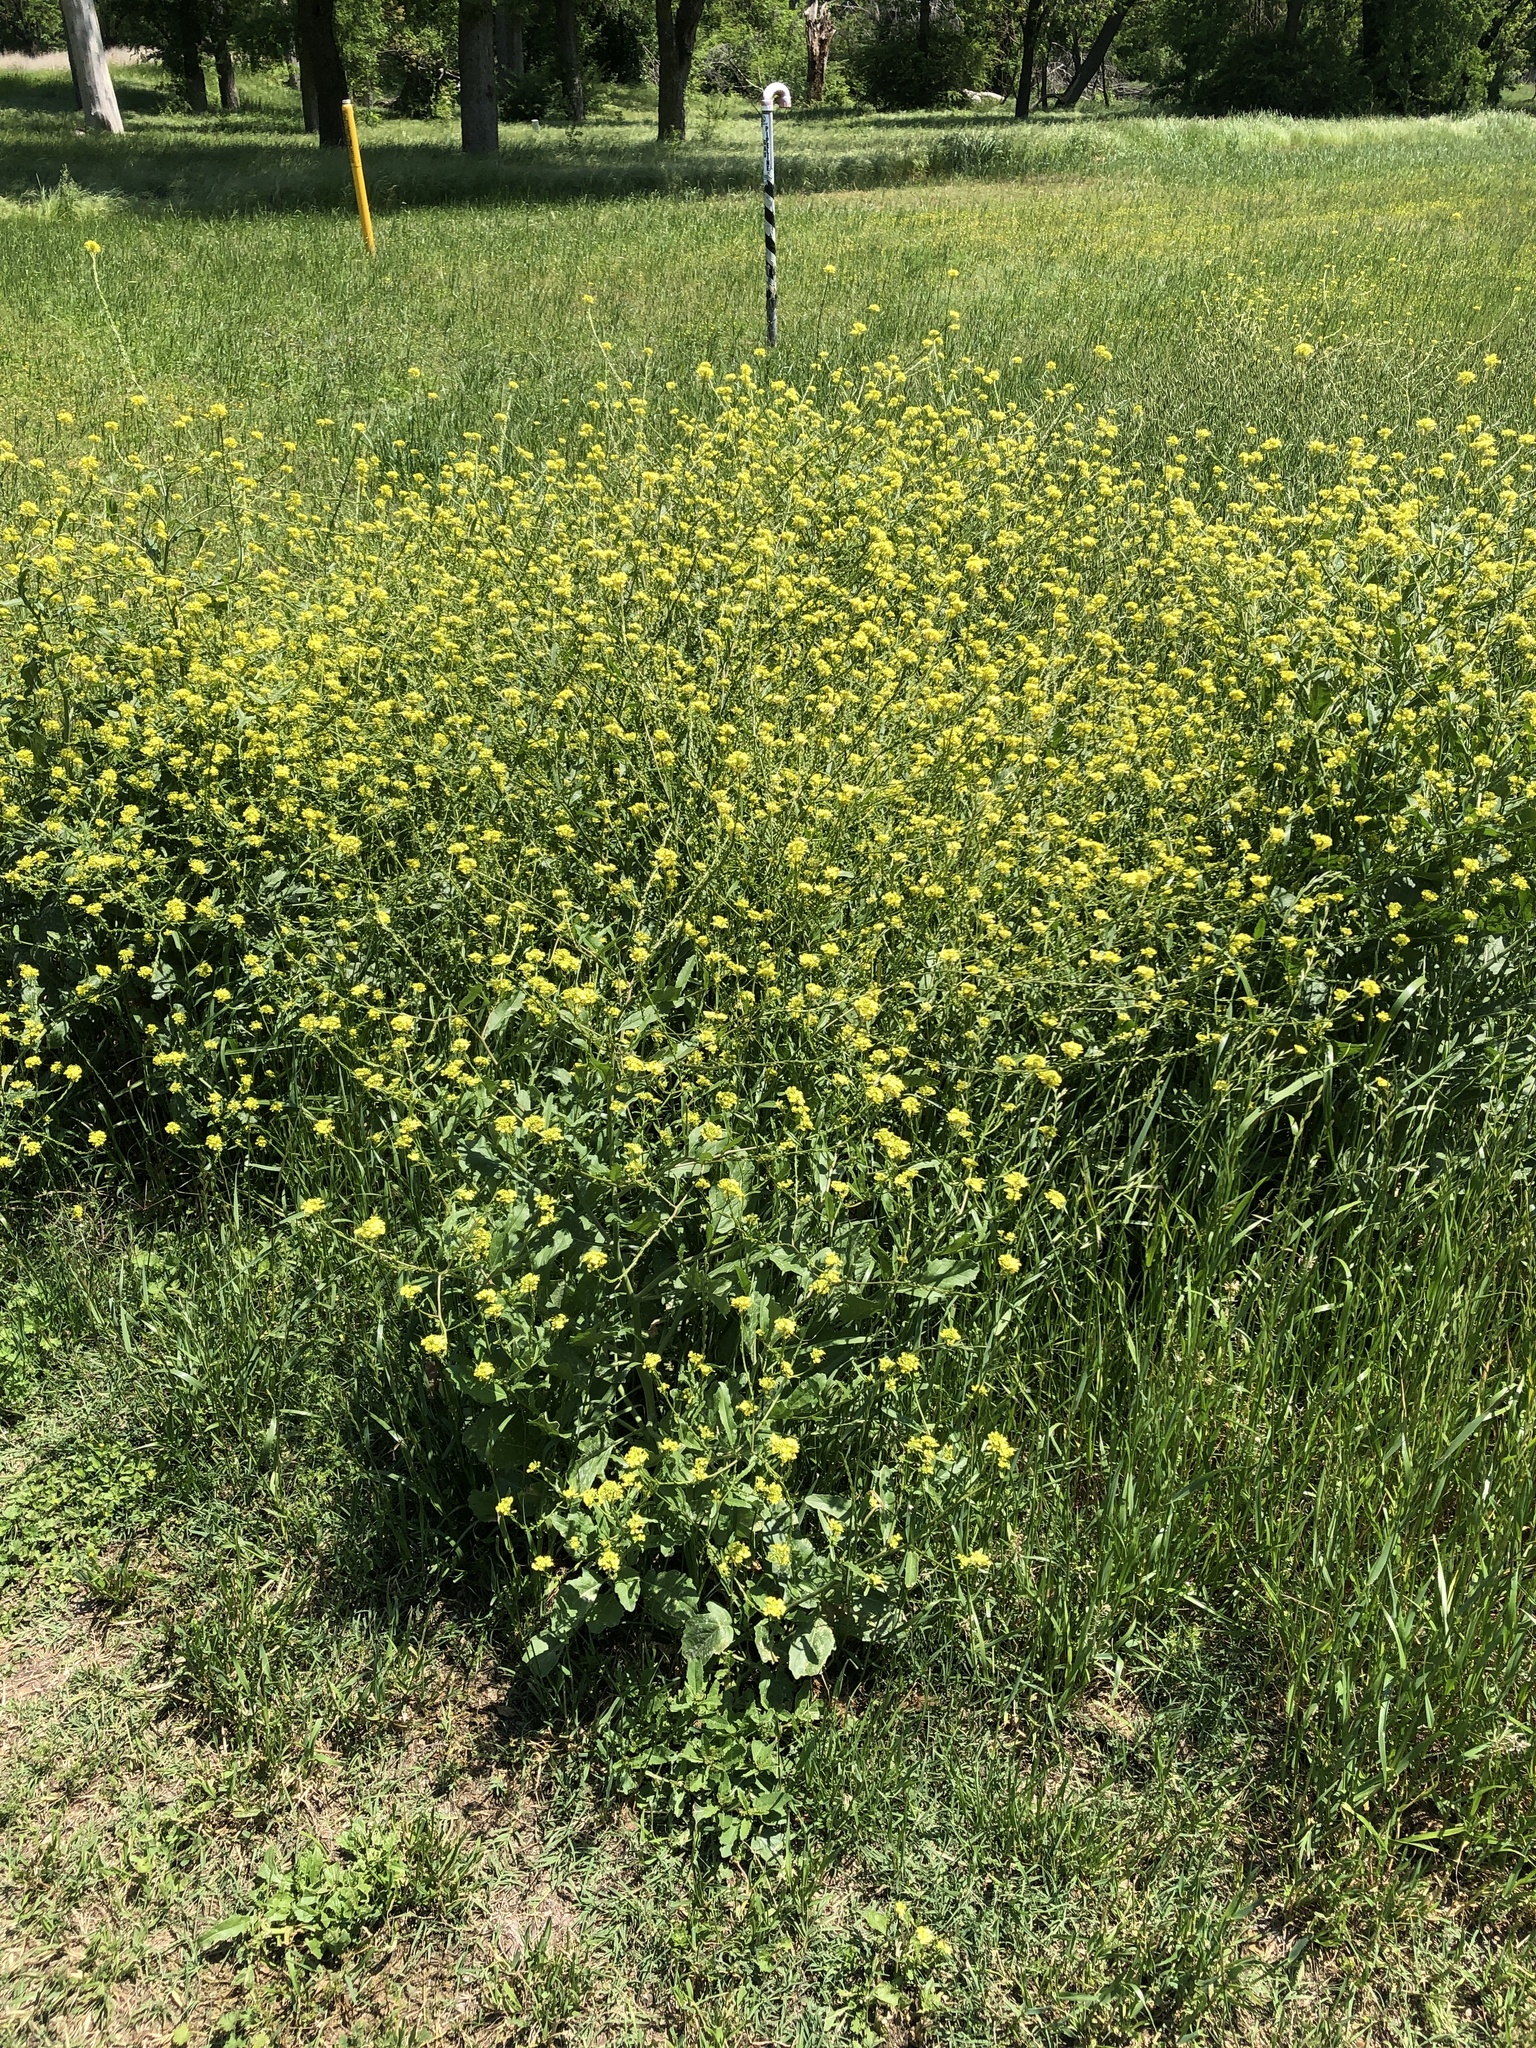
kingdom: Plantae
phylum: Tracheophyta
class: Magnoliopsida
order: Brassicales
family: Brassicaceae
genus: Rapistrum
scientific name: Rapistrum rugosum
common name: Annual bastardcabbage
